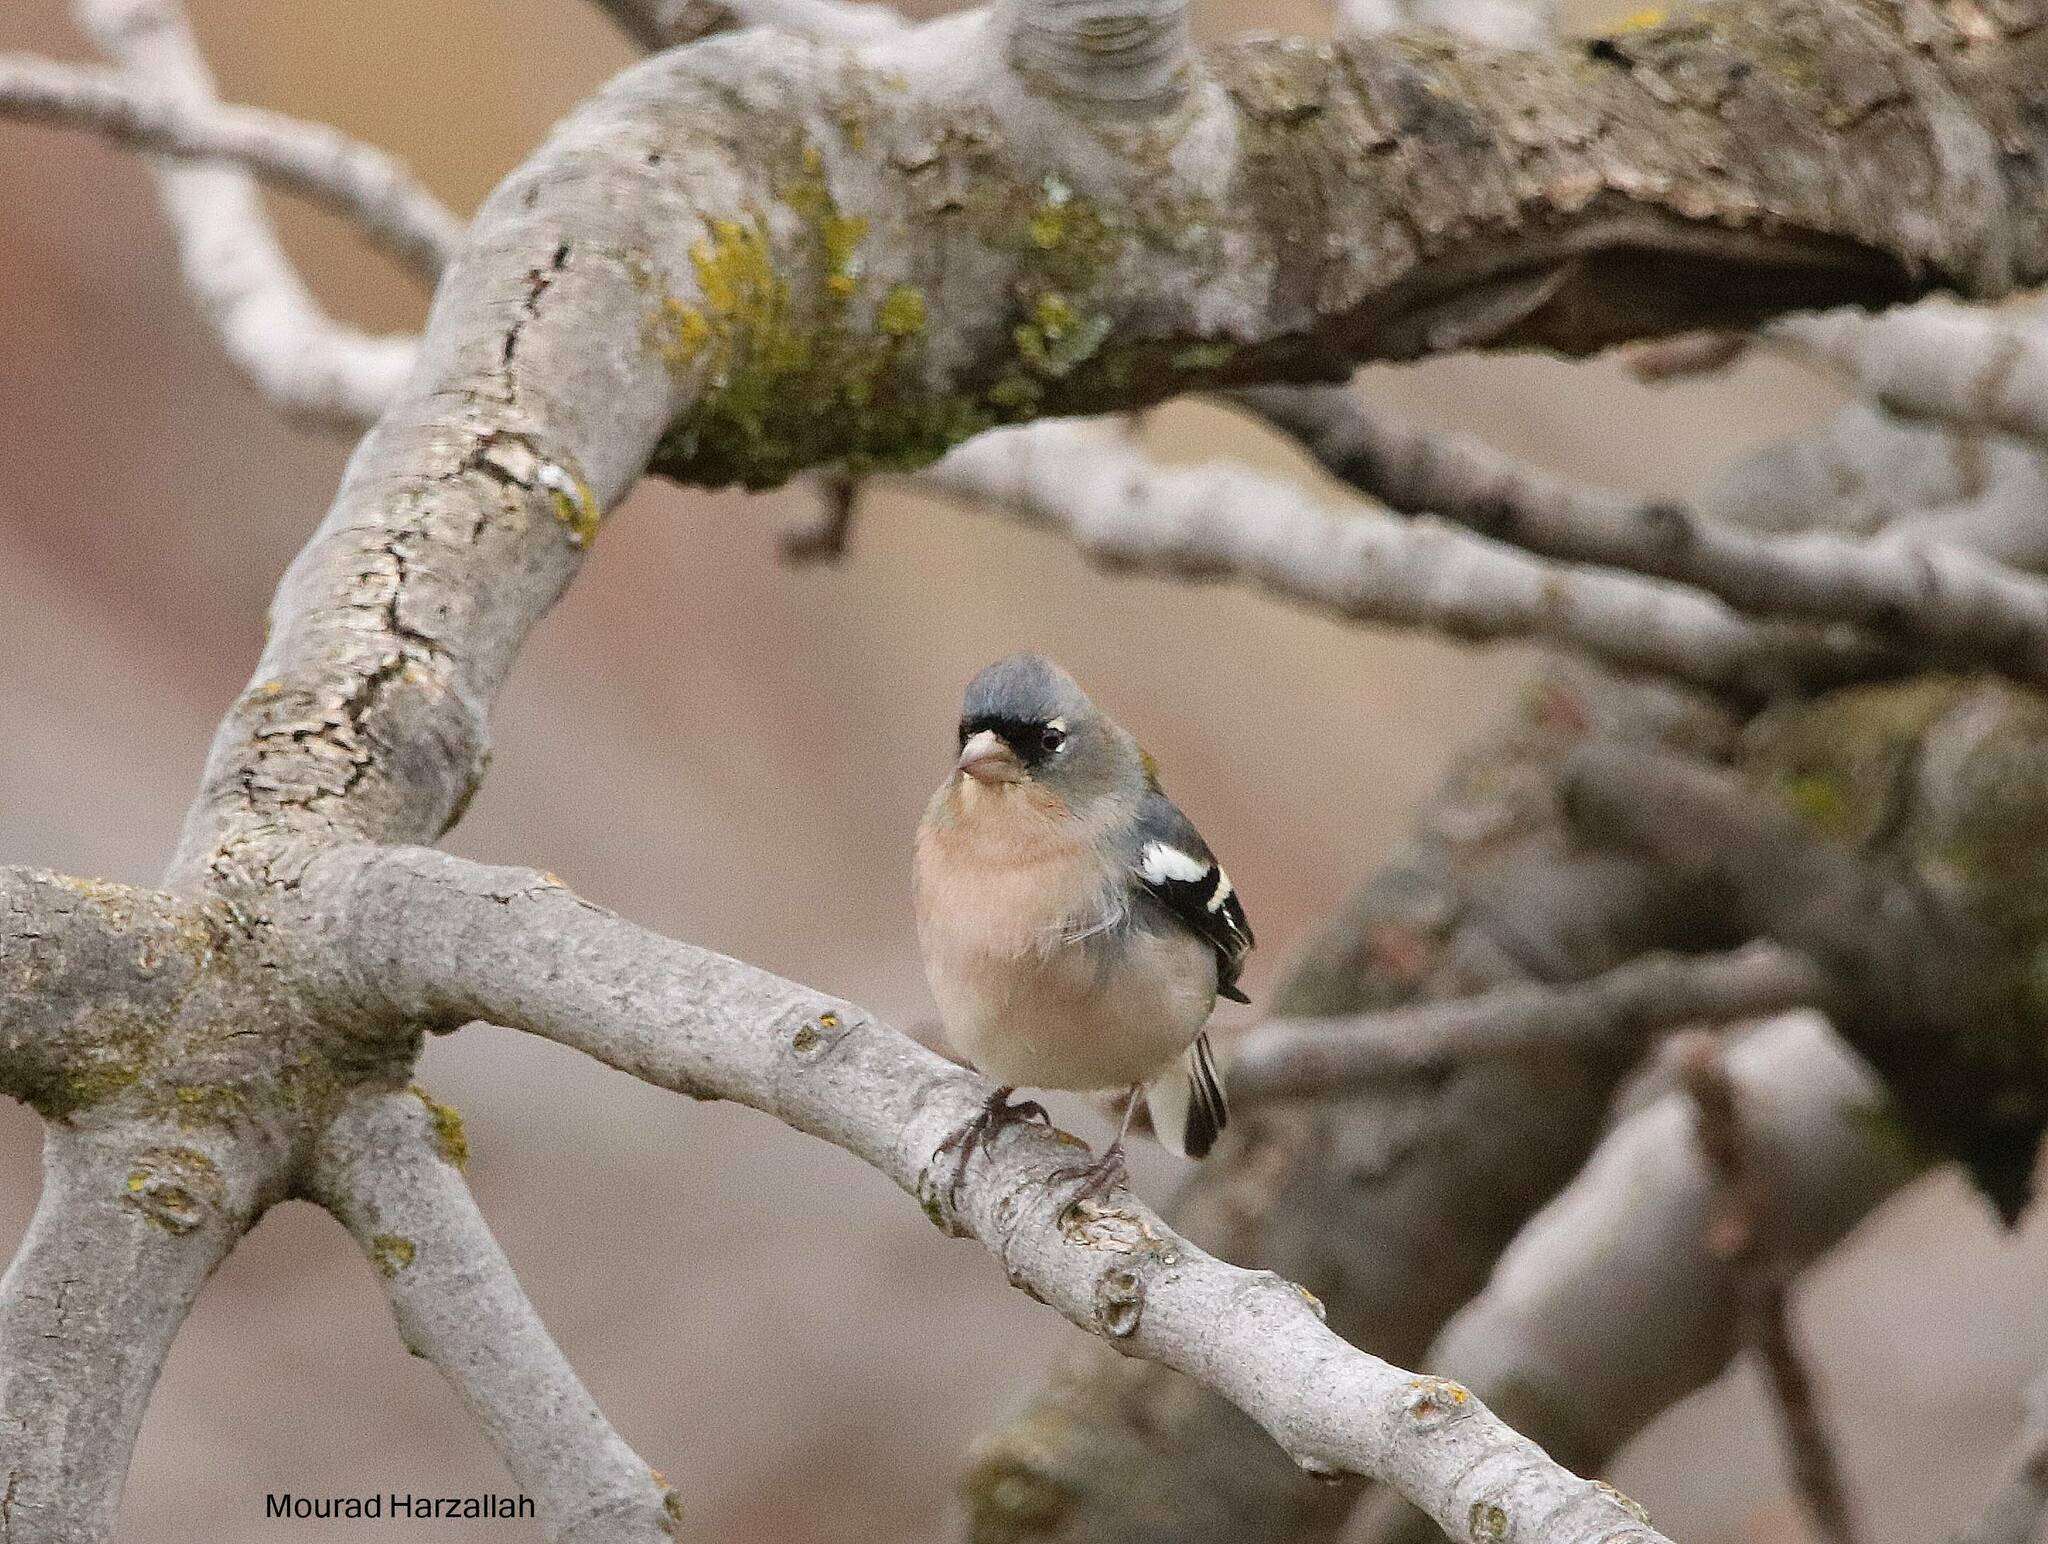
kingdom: Animalia
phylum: Chordata
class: Aves
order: Passeriformes
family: Fringillidae
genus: Fringilla
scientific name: Fringilla spodiogenys
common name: African chaffinch
